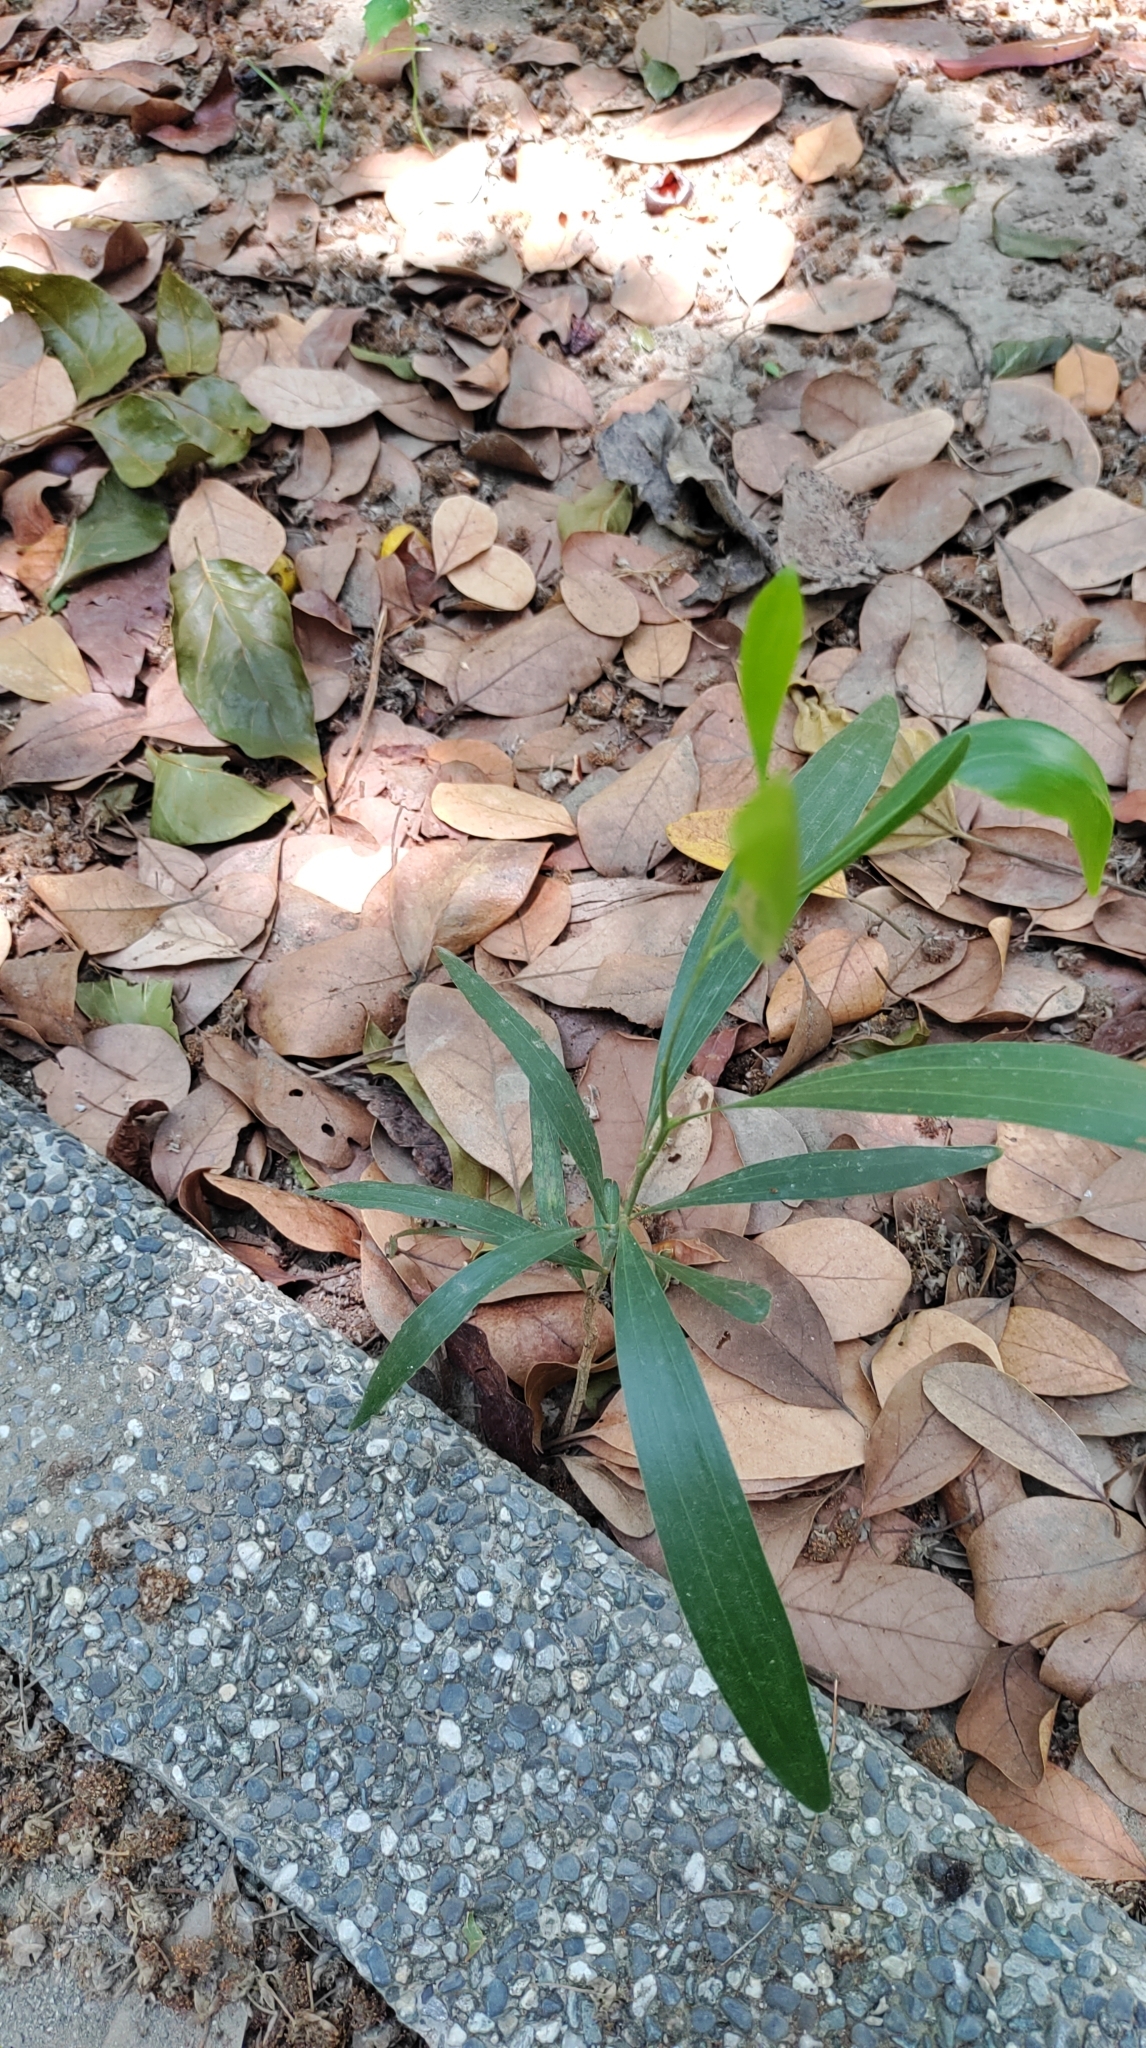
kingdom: Plantae
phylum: Tracheophyta
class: Magnoliopsida
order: Fabales
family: Fabaceae
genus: Acacia
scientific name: Acacia confusa
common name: Formosan koa
